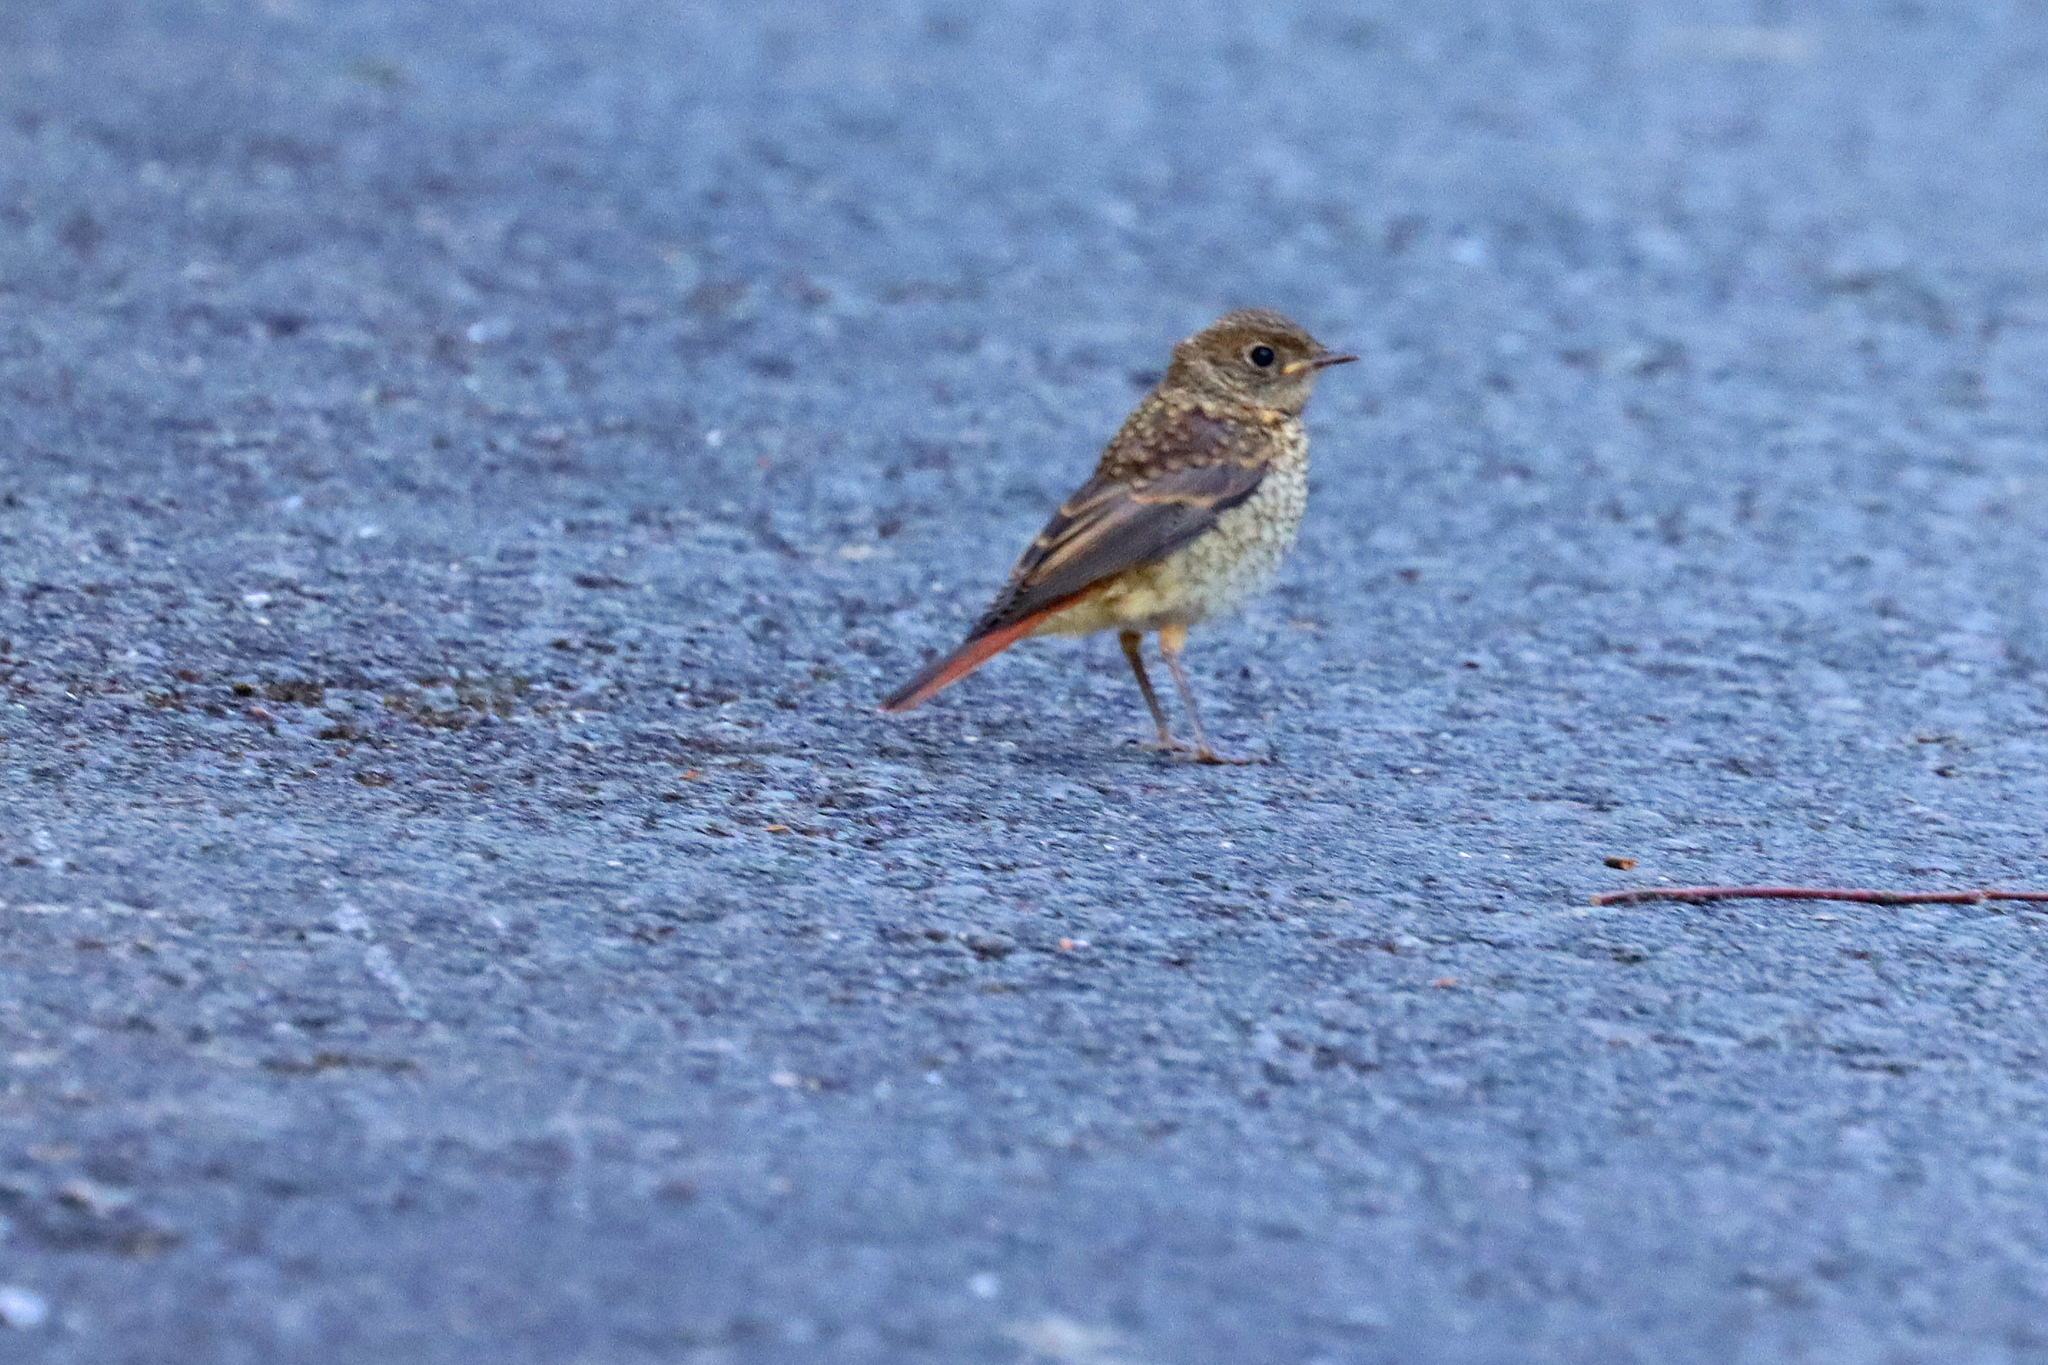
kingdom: Animalia
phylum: Chordata
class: Aves
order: Passeriformes
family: Muscicapidae
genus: Phoenicurus
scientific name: Phoenicurus phoenicurus
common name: Common redstart
